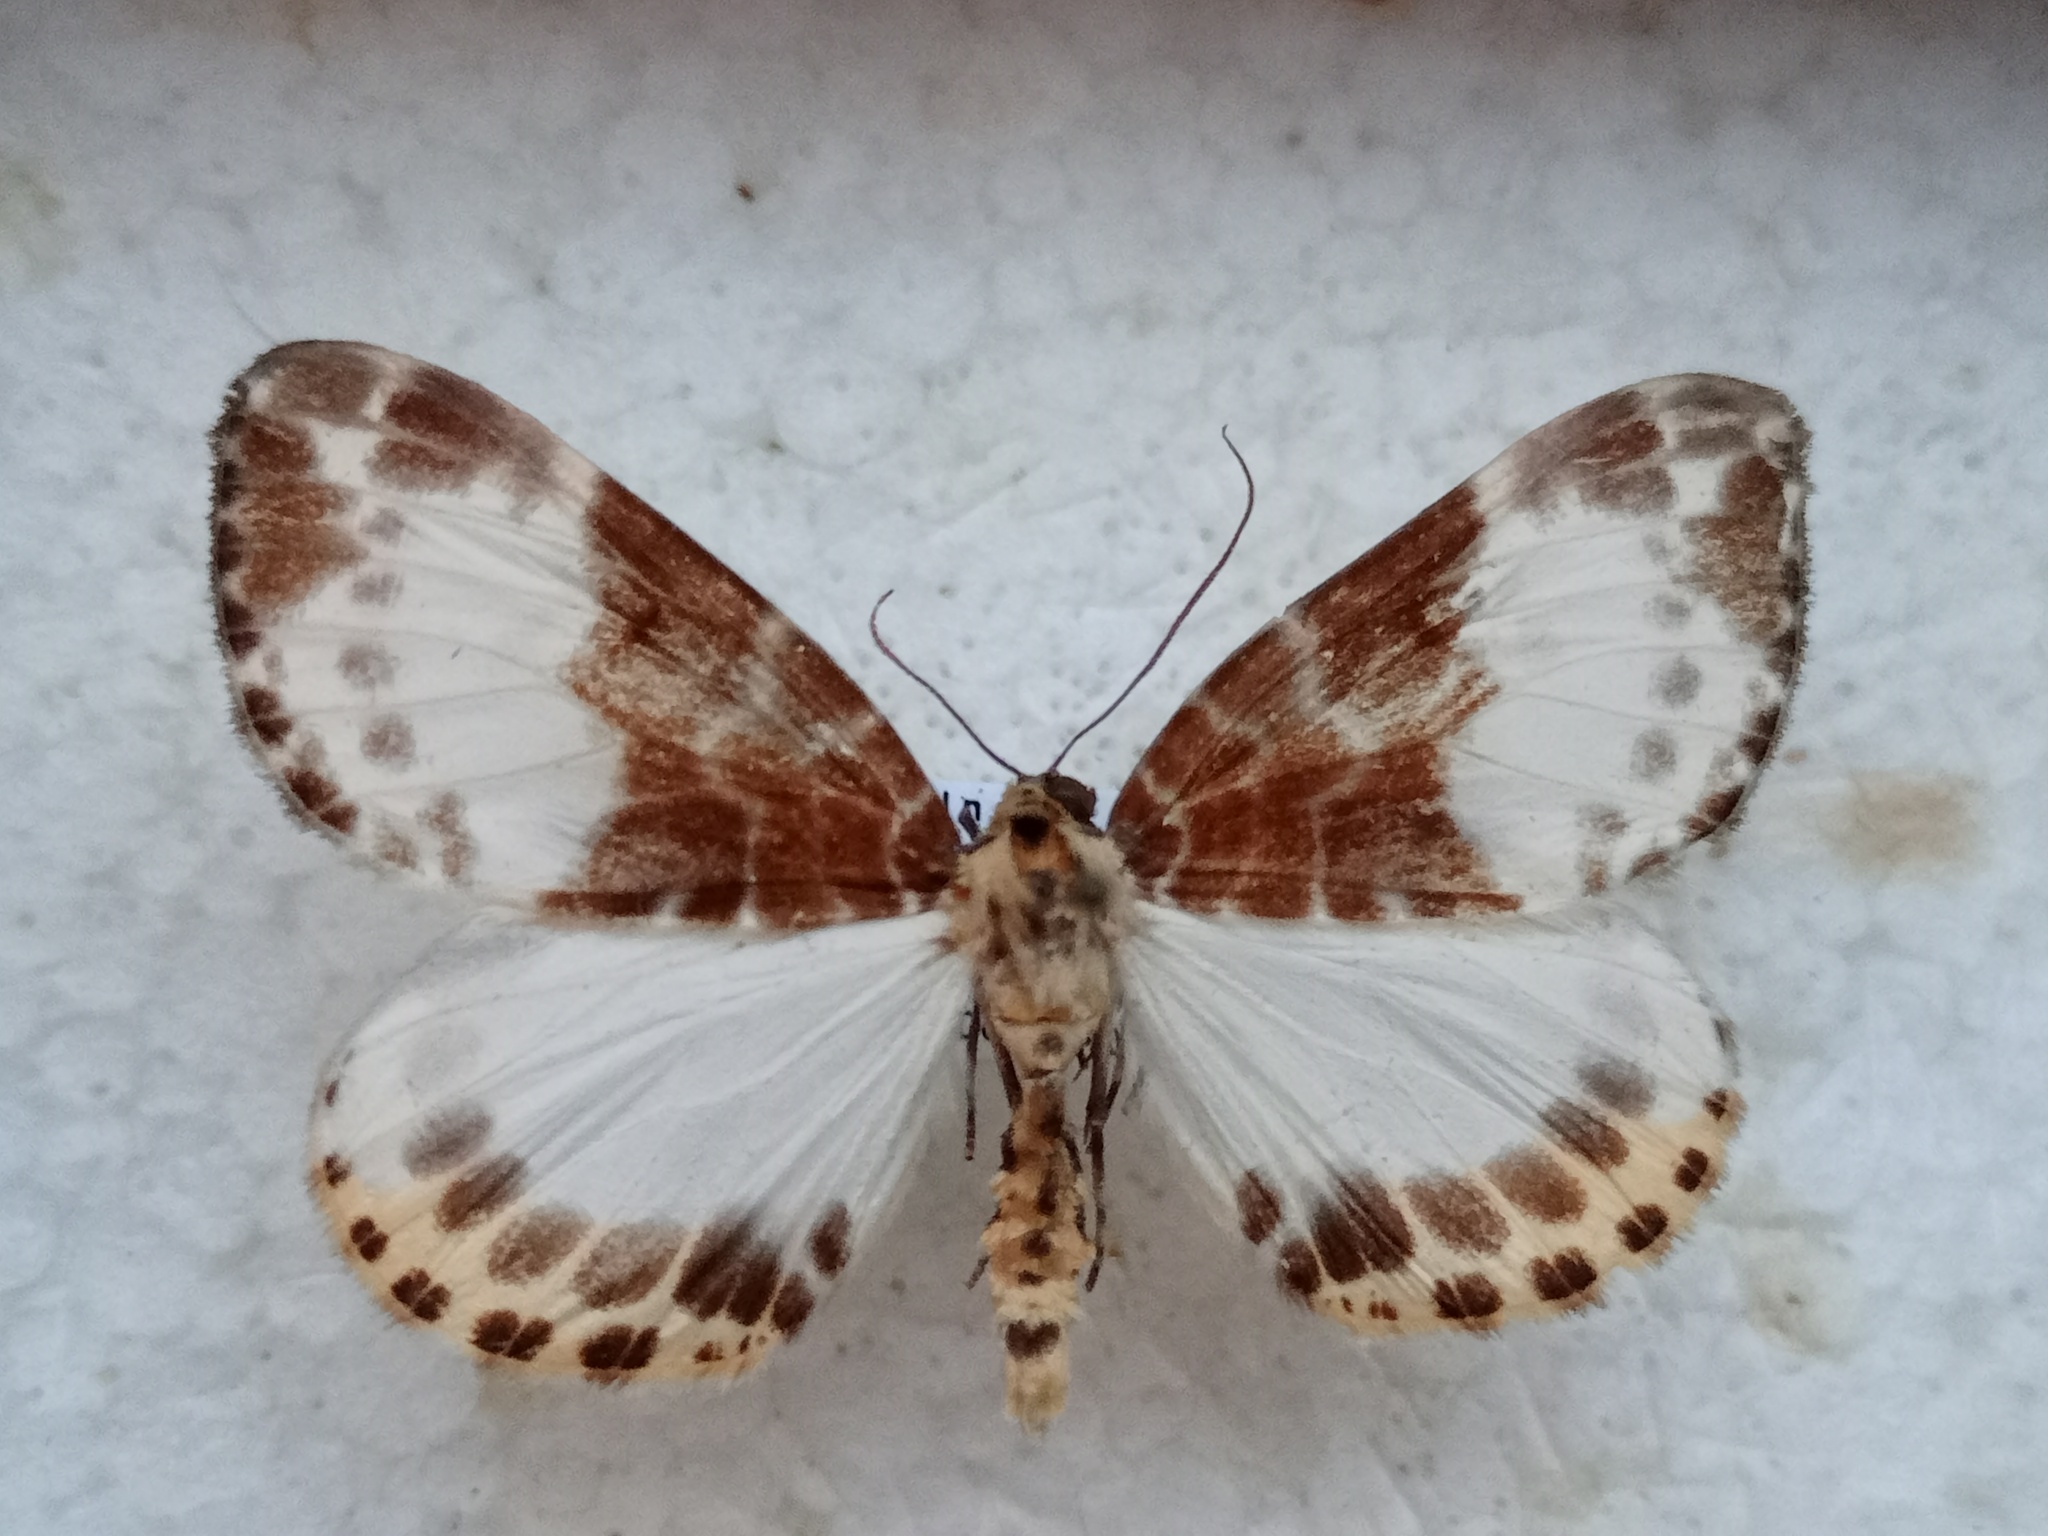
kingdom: Animalia
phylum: Arthropoda
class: Insecta
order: Lepidoptera
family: Geometridae
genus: Callabraxas
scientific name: Callabraxas amanda
